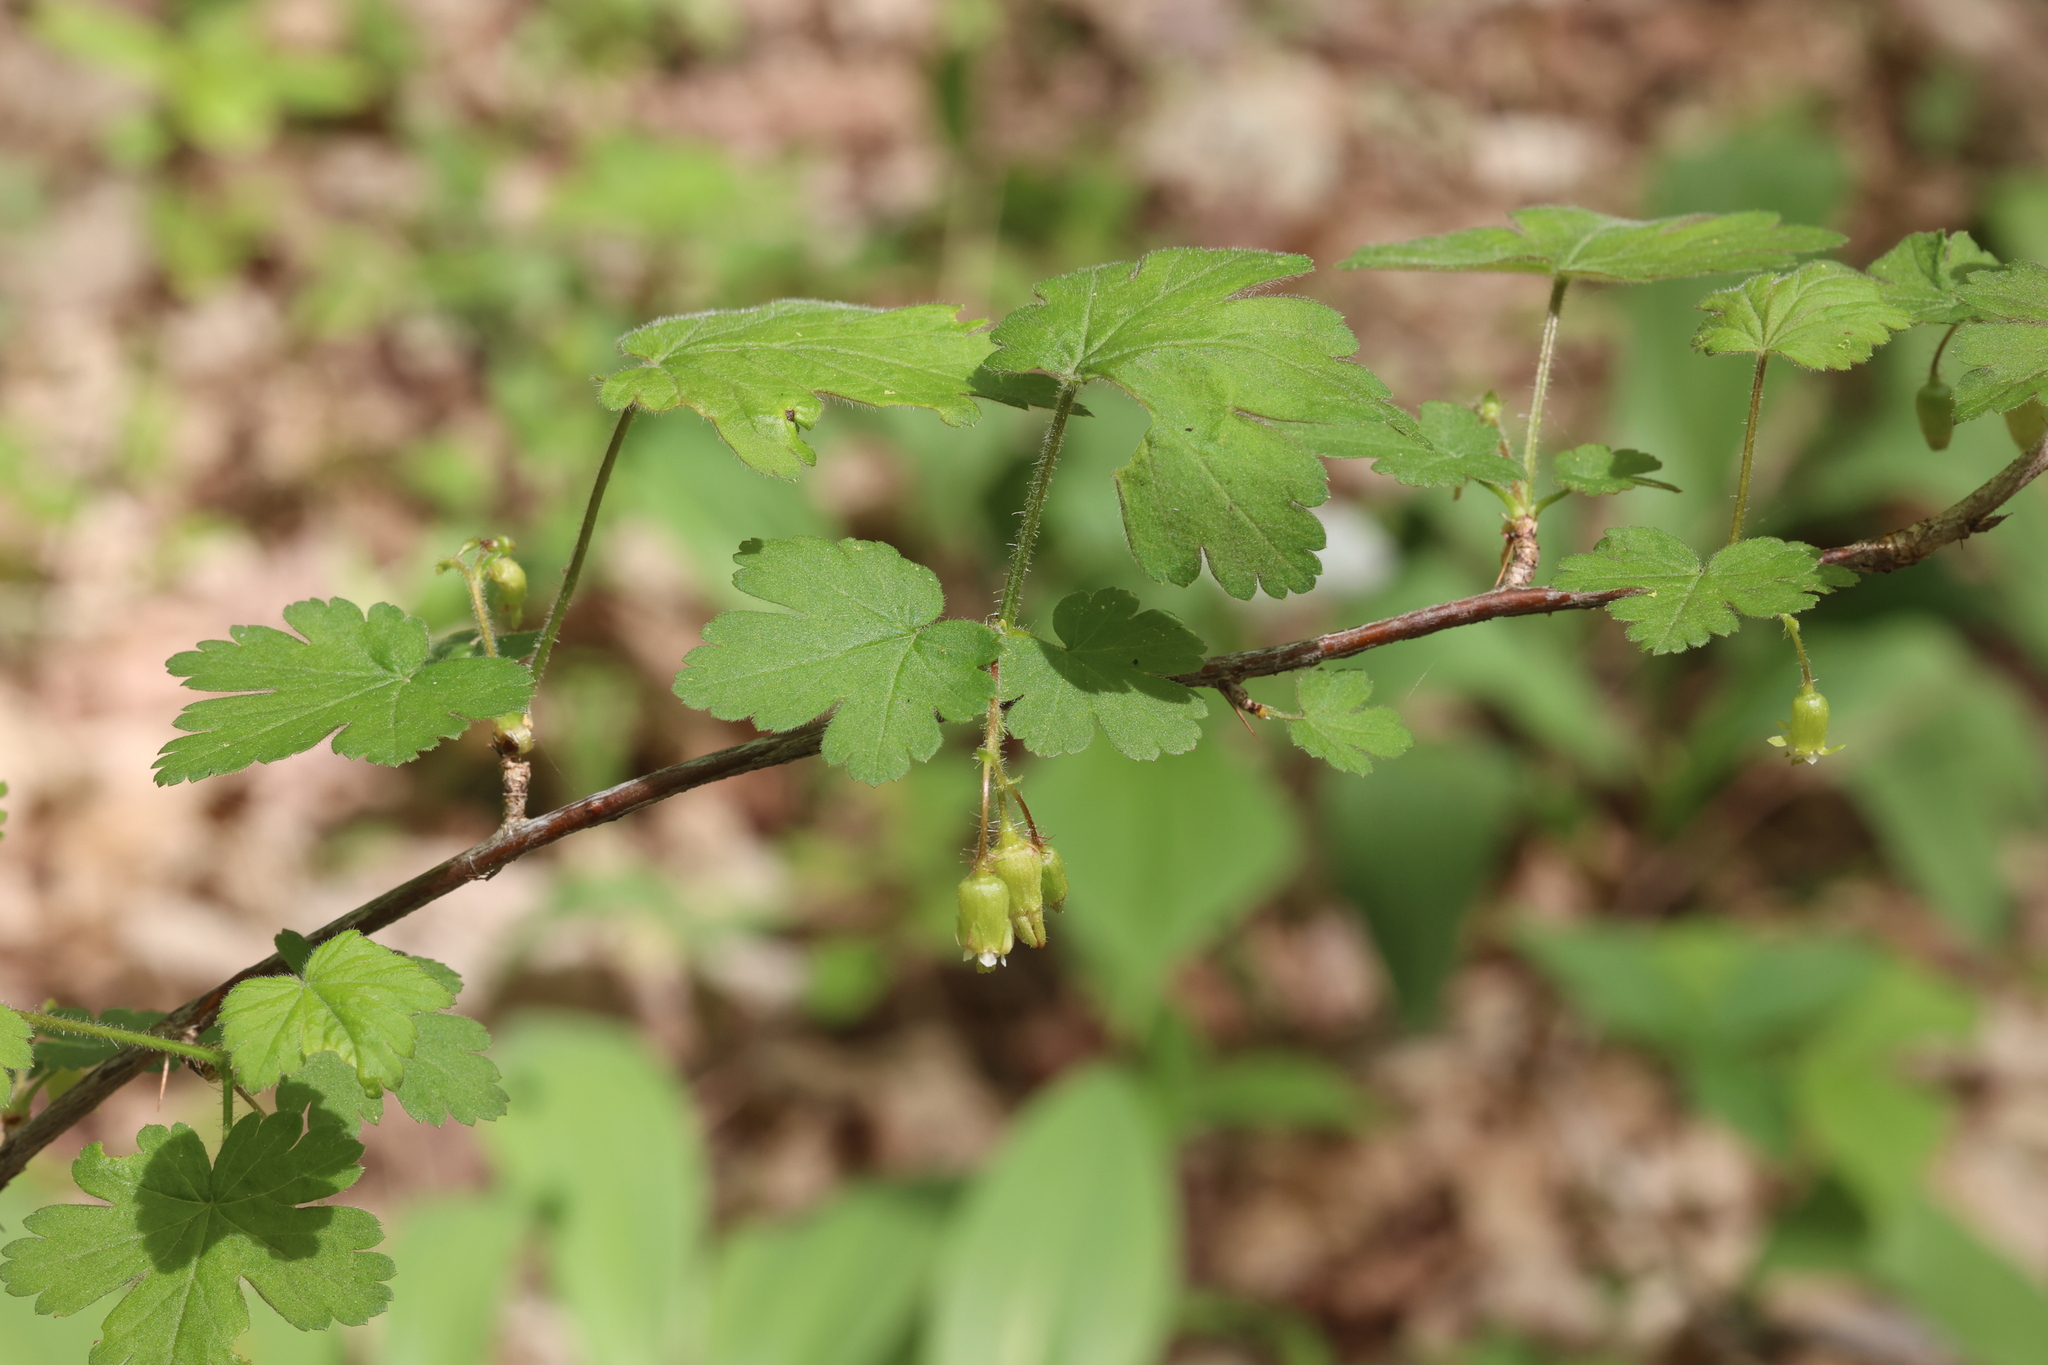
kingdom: Plantae
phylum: Tracheophyta
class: Magnoliopsida
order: Saxifragales
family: Grossulariaceae
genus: Ribes
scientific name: Ribes cynosbati
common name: American gooseberry
